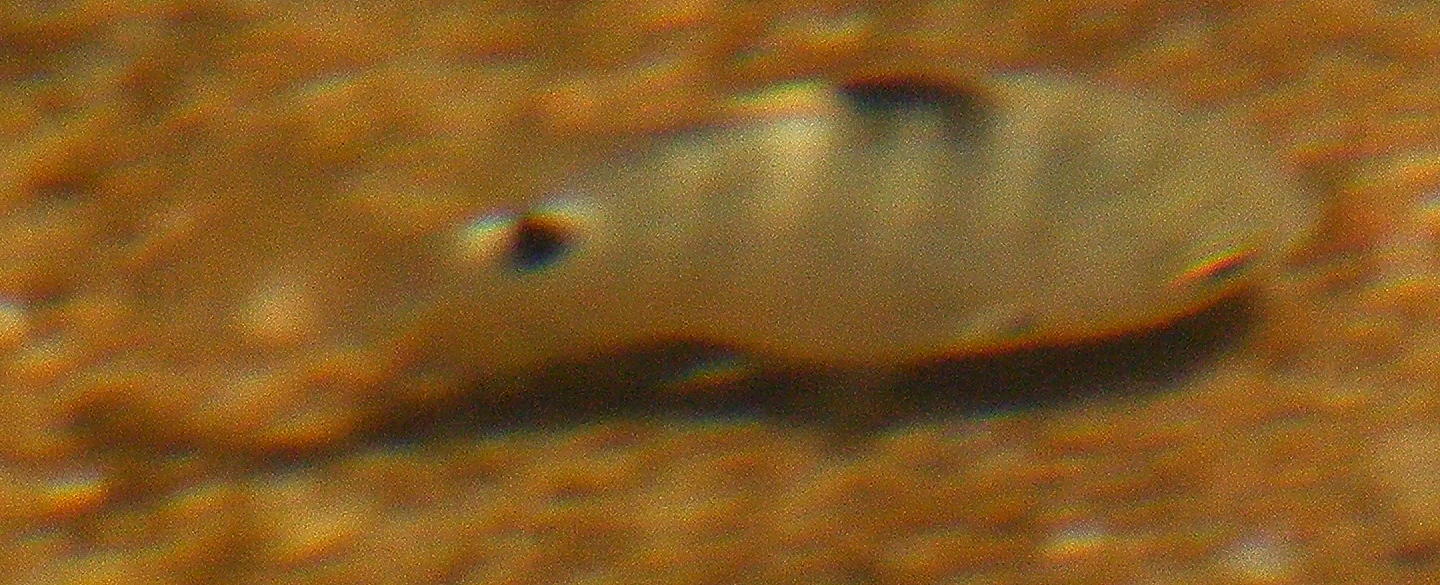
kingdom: Animalia
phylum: Chordata
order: Perciformes
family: Pomacentridae
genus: Abudefduf
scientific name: Abudefduf sordidus
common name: Blackspot sergeant
